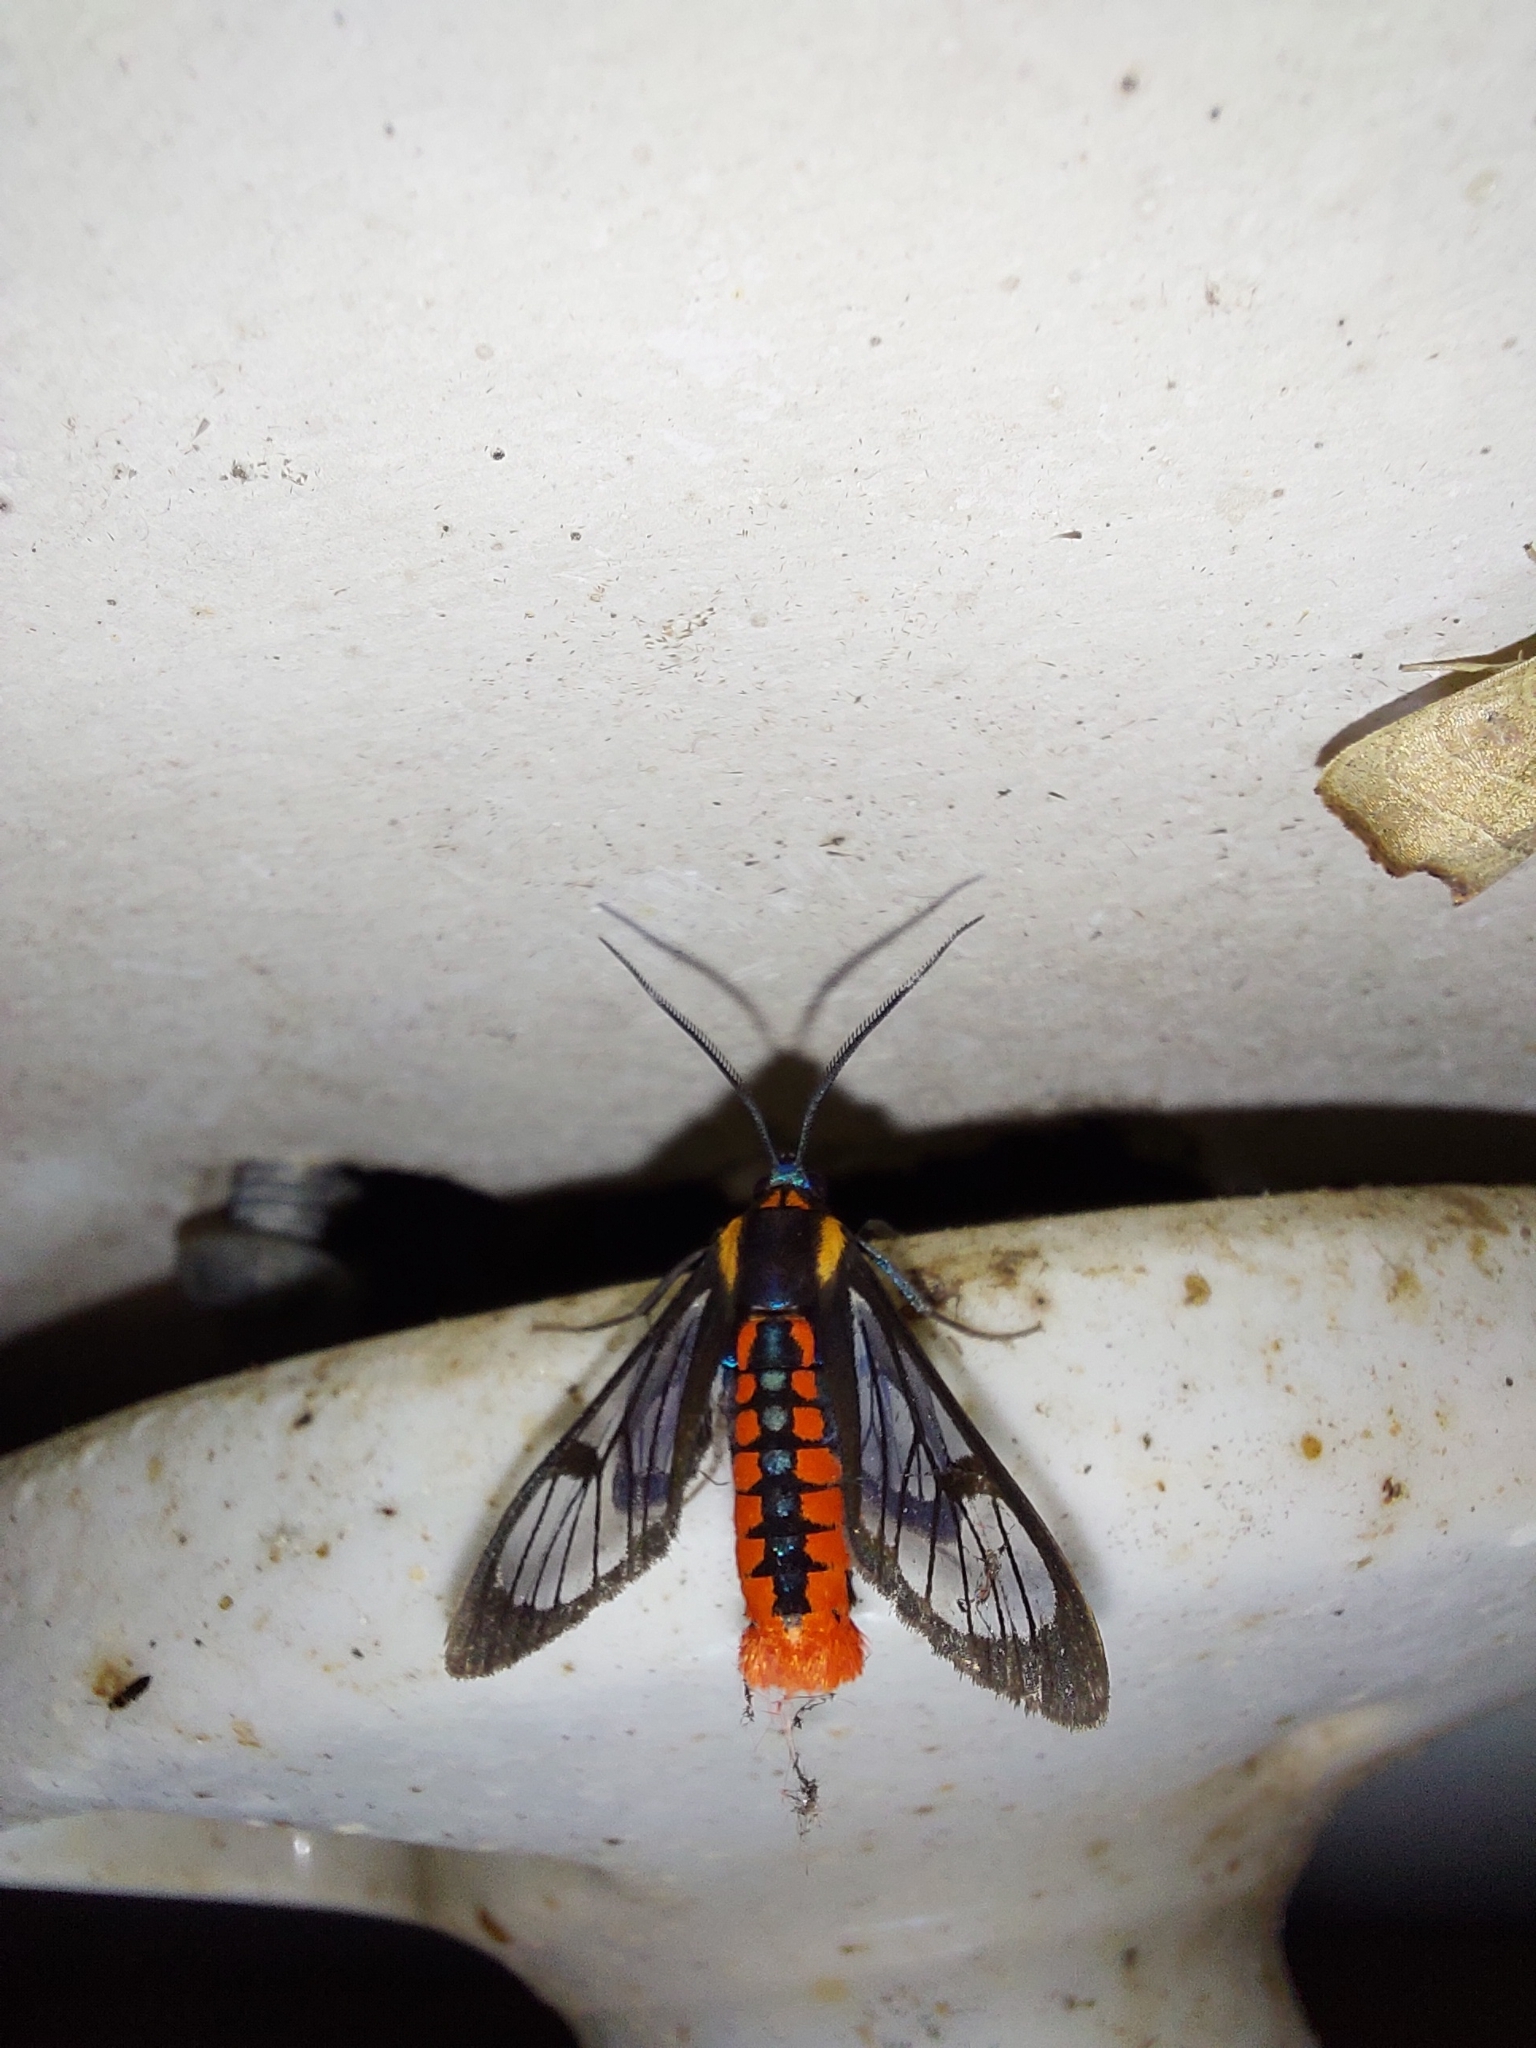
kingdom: Animalia
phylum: Arthropoda
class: Insecta
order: Lepidoptera
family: Erebidae
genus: Phoenicoprocta
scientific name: Phoenicoprocta sanguinea
